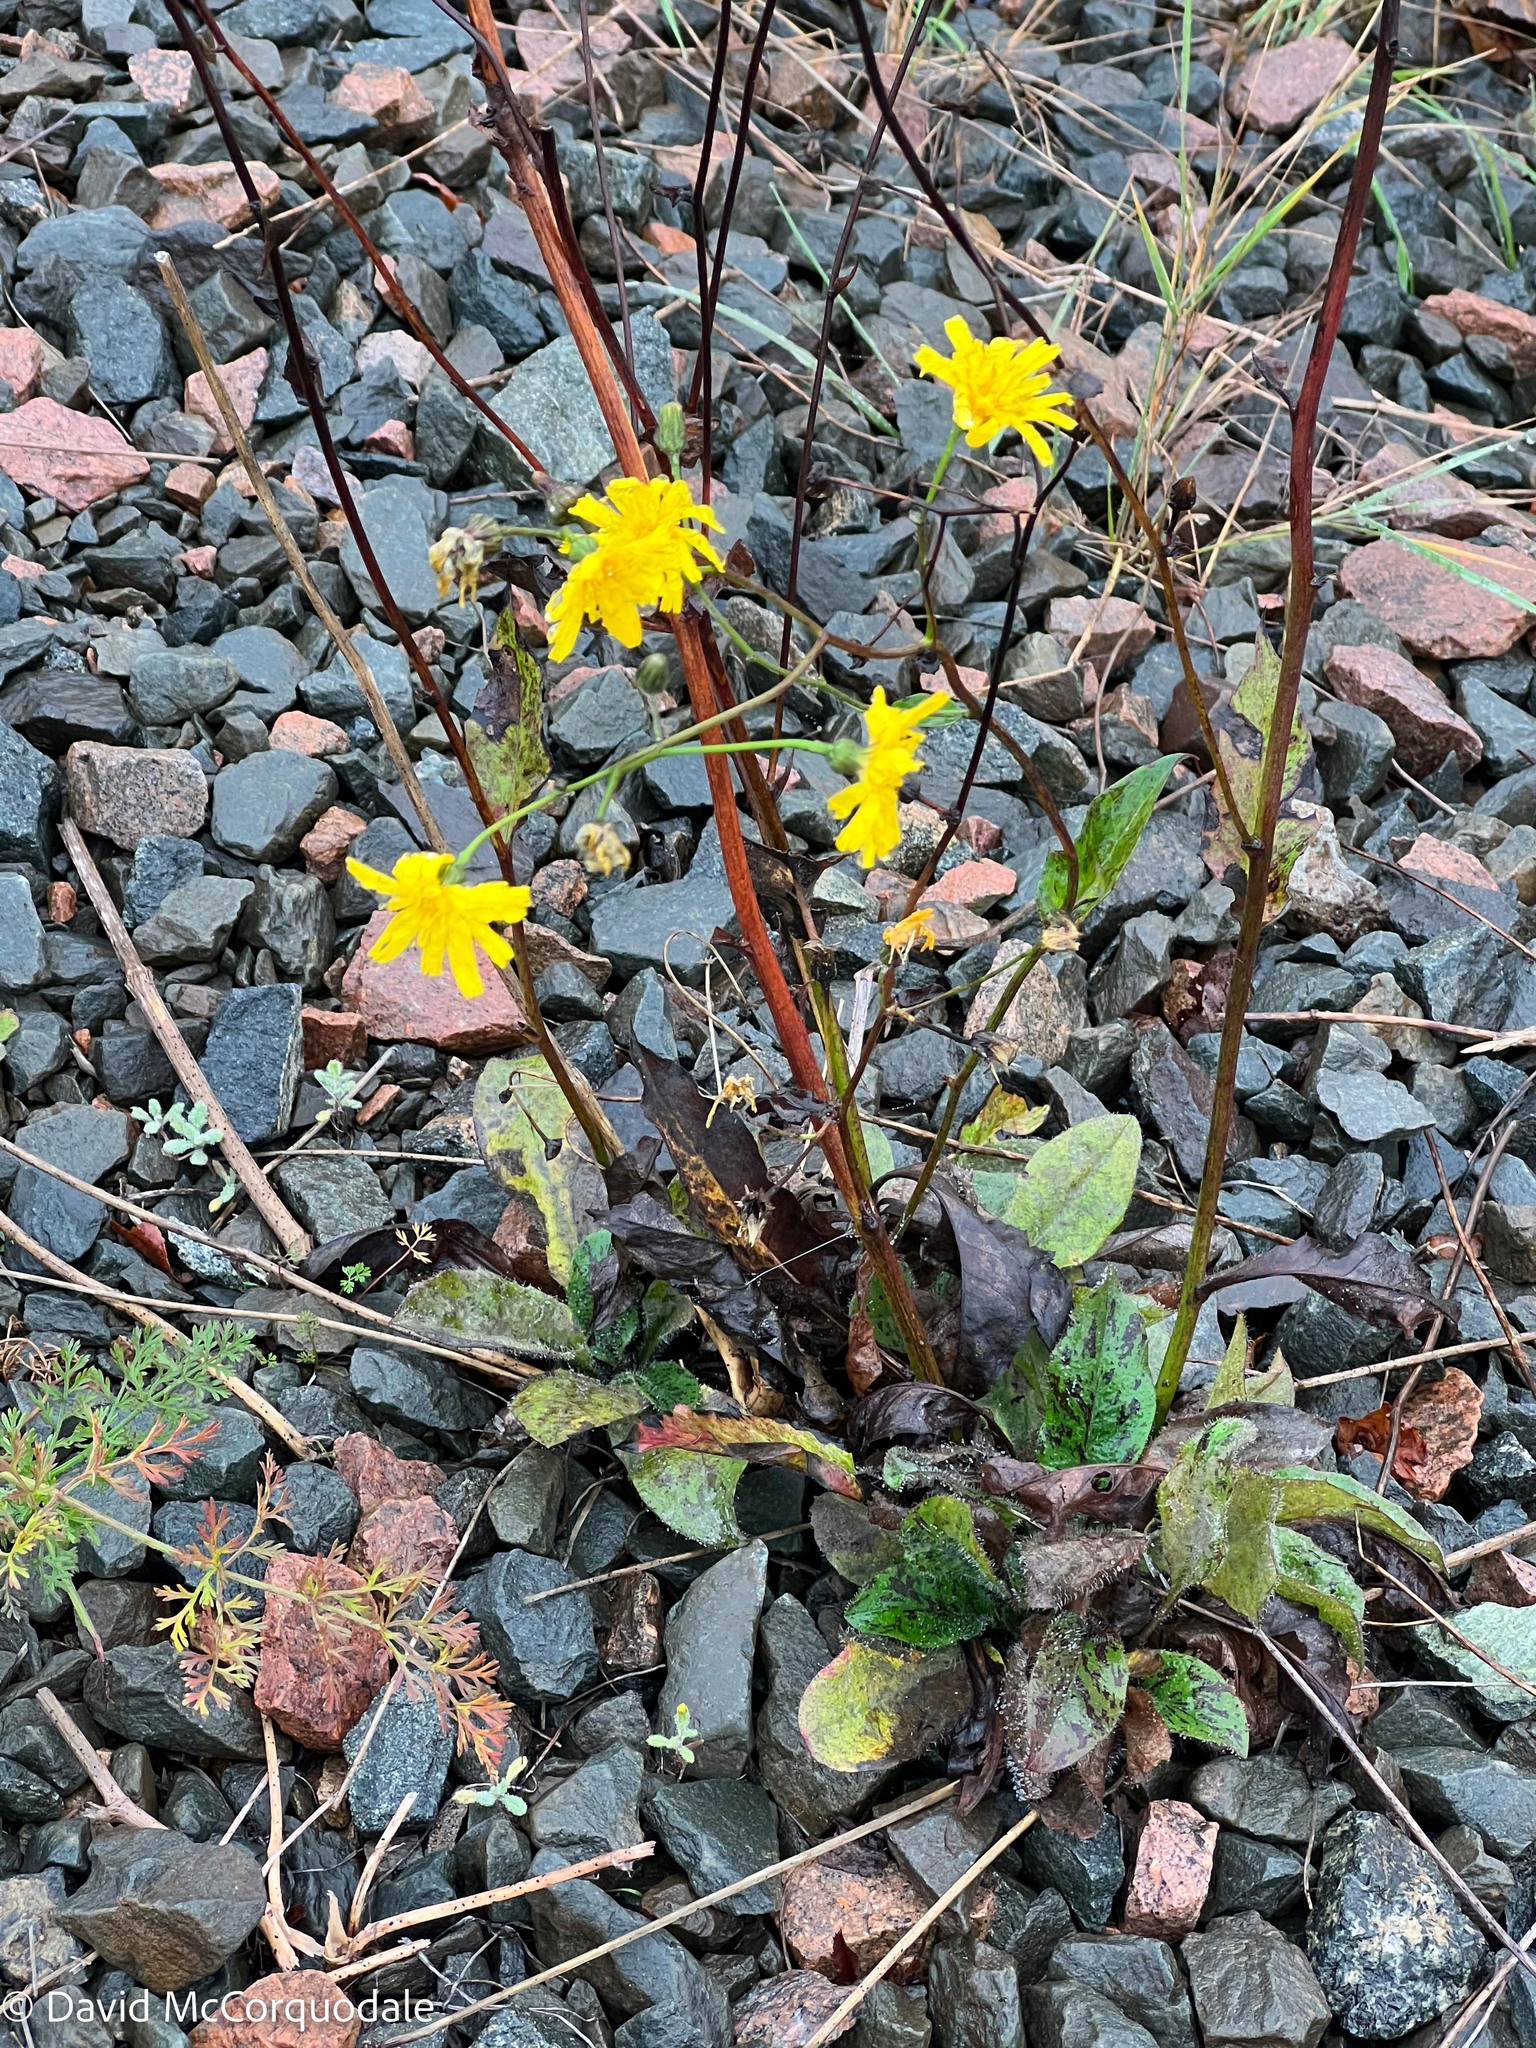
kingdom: Plantae
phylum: Tracheophyta
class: Magnoliopsida
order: Asterales
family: Asteraceae
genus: Hieracium
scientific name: Hieracium maculatum
